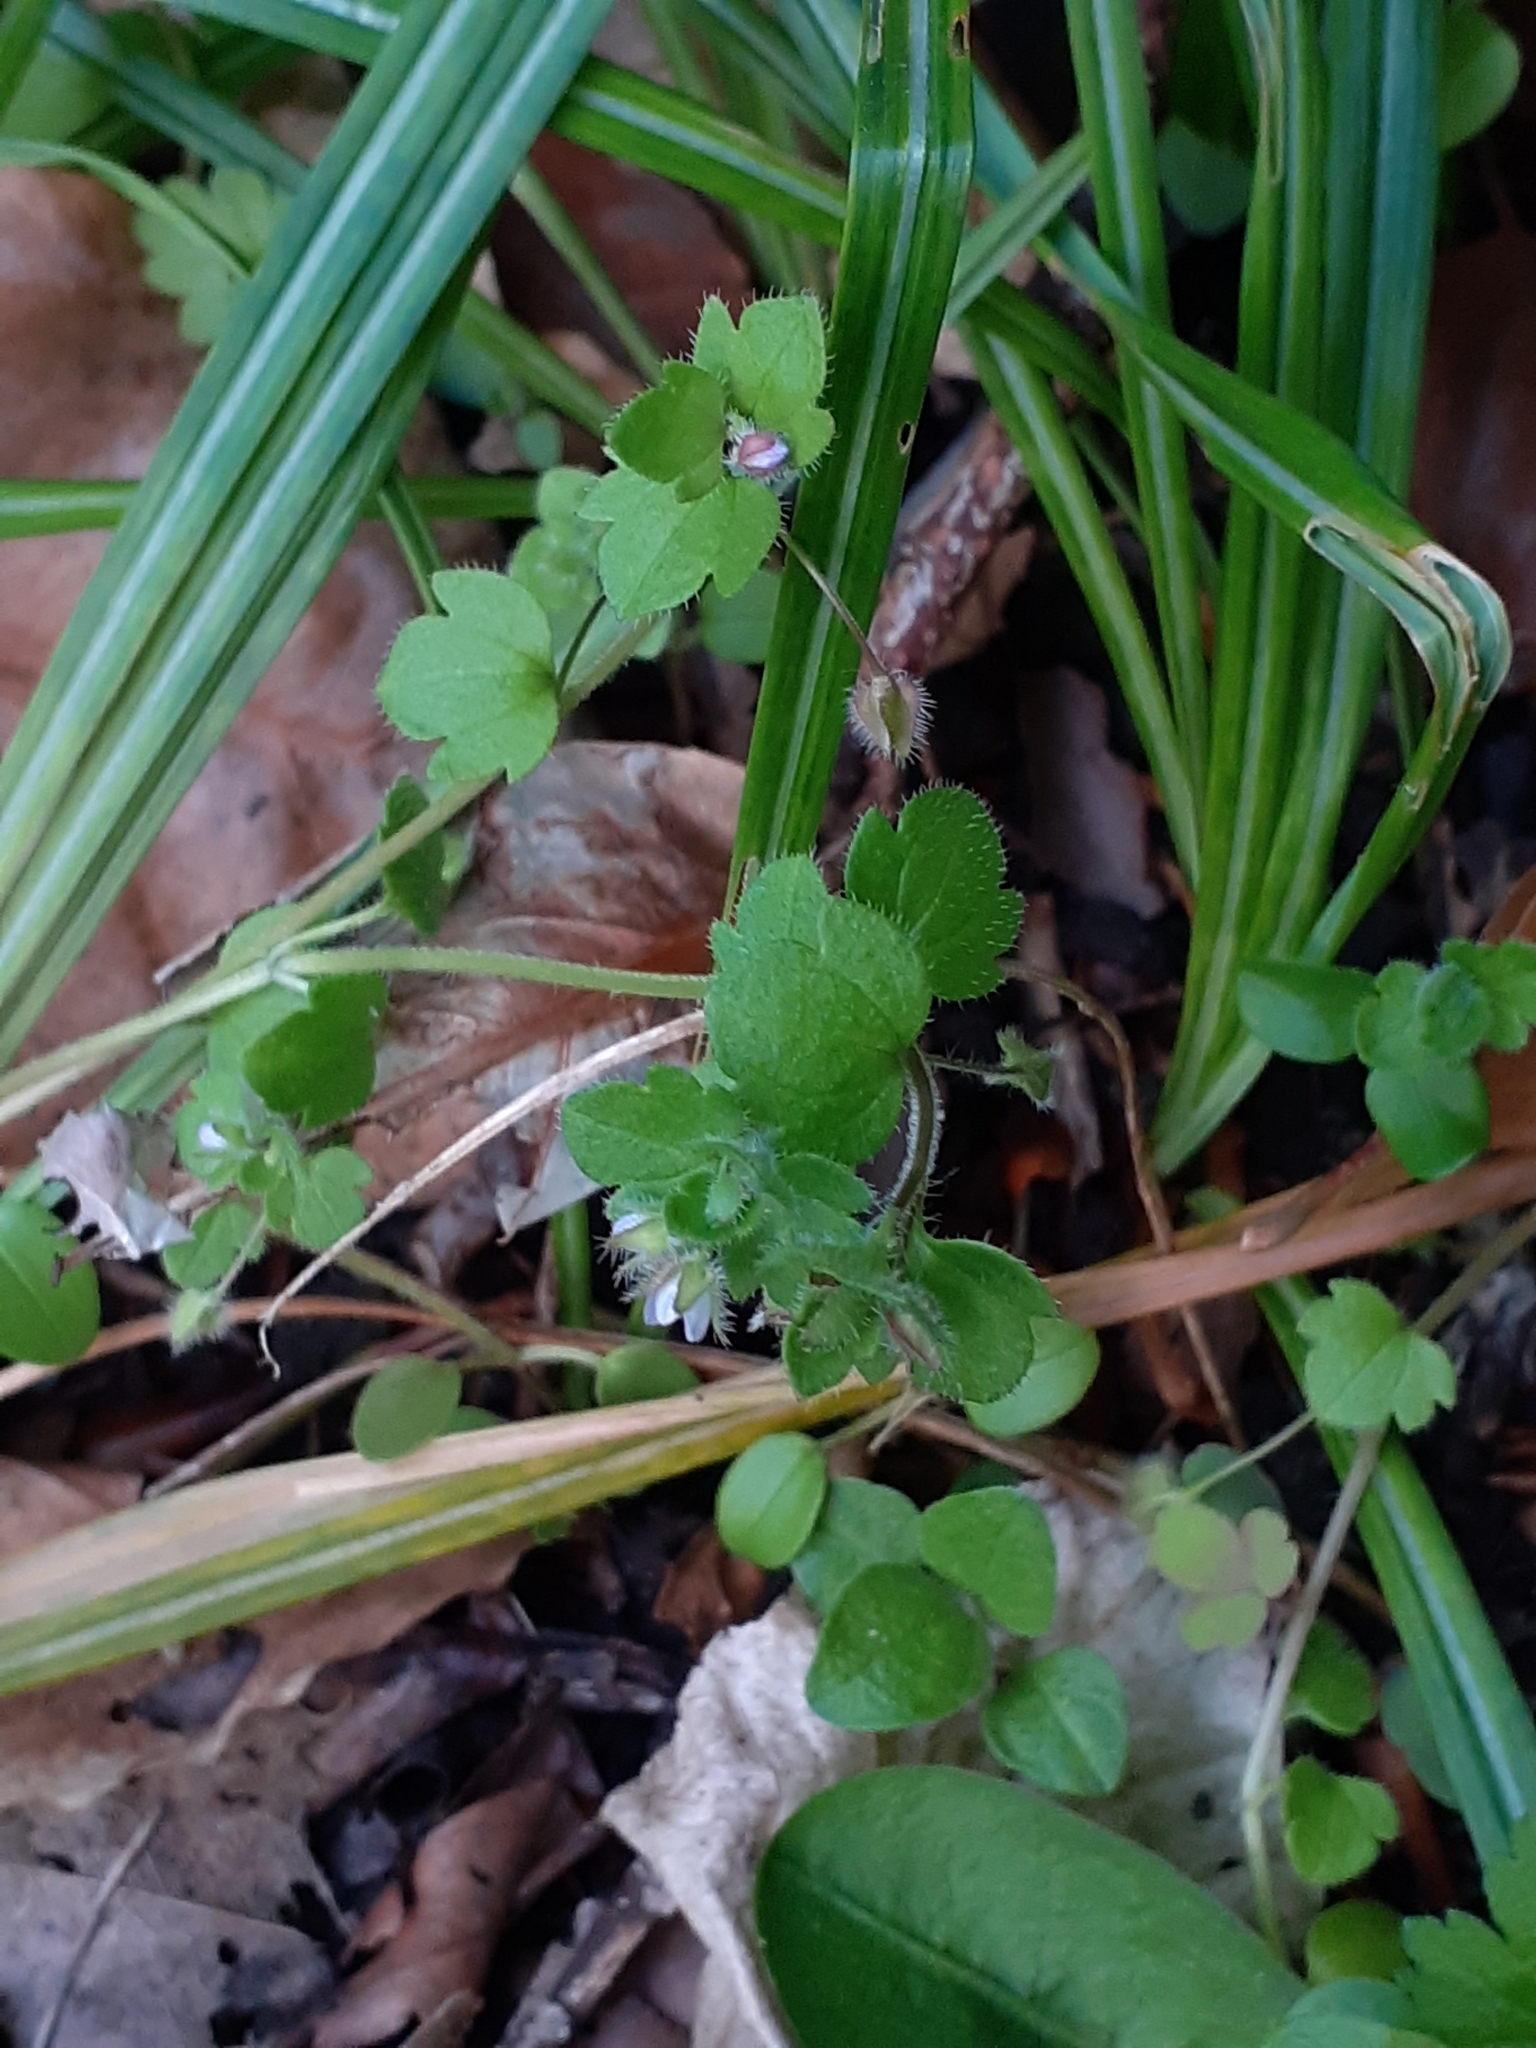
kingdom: Plantae
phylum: Tracheophyta
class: Magnoliopsida
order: Lamiales
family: Plantaginaceae
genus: Veronica
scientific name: Veronica sublobata
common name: False ivy-leaved speedwell
